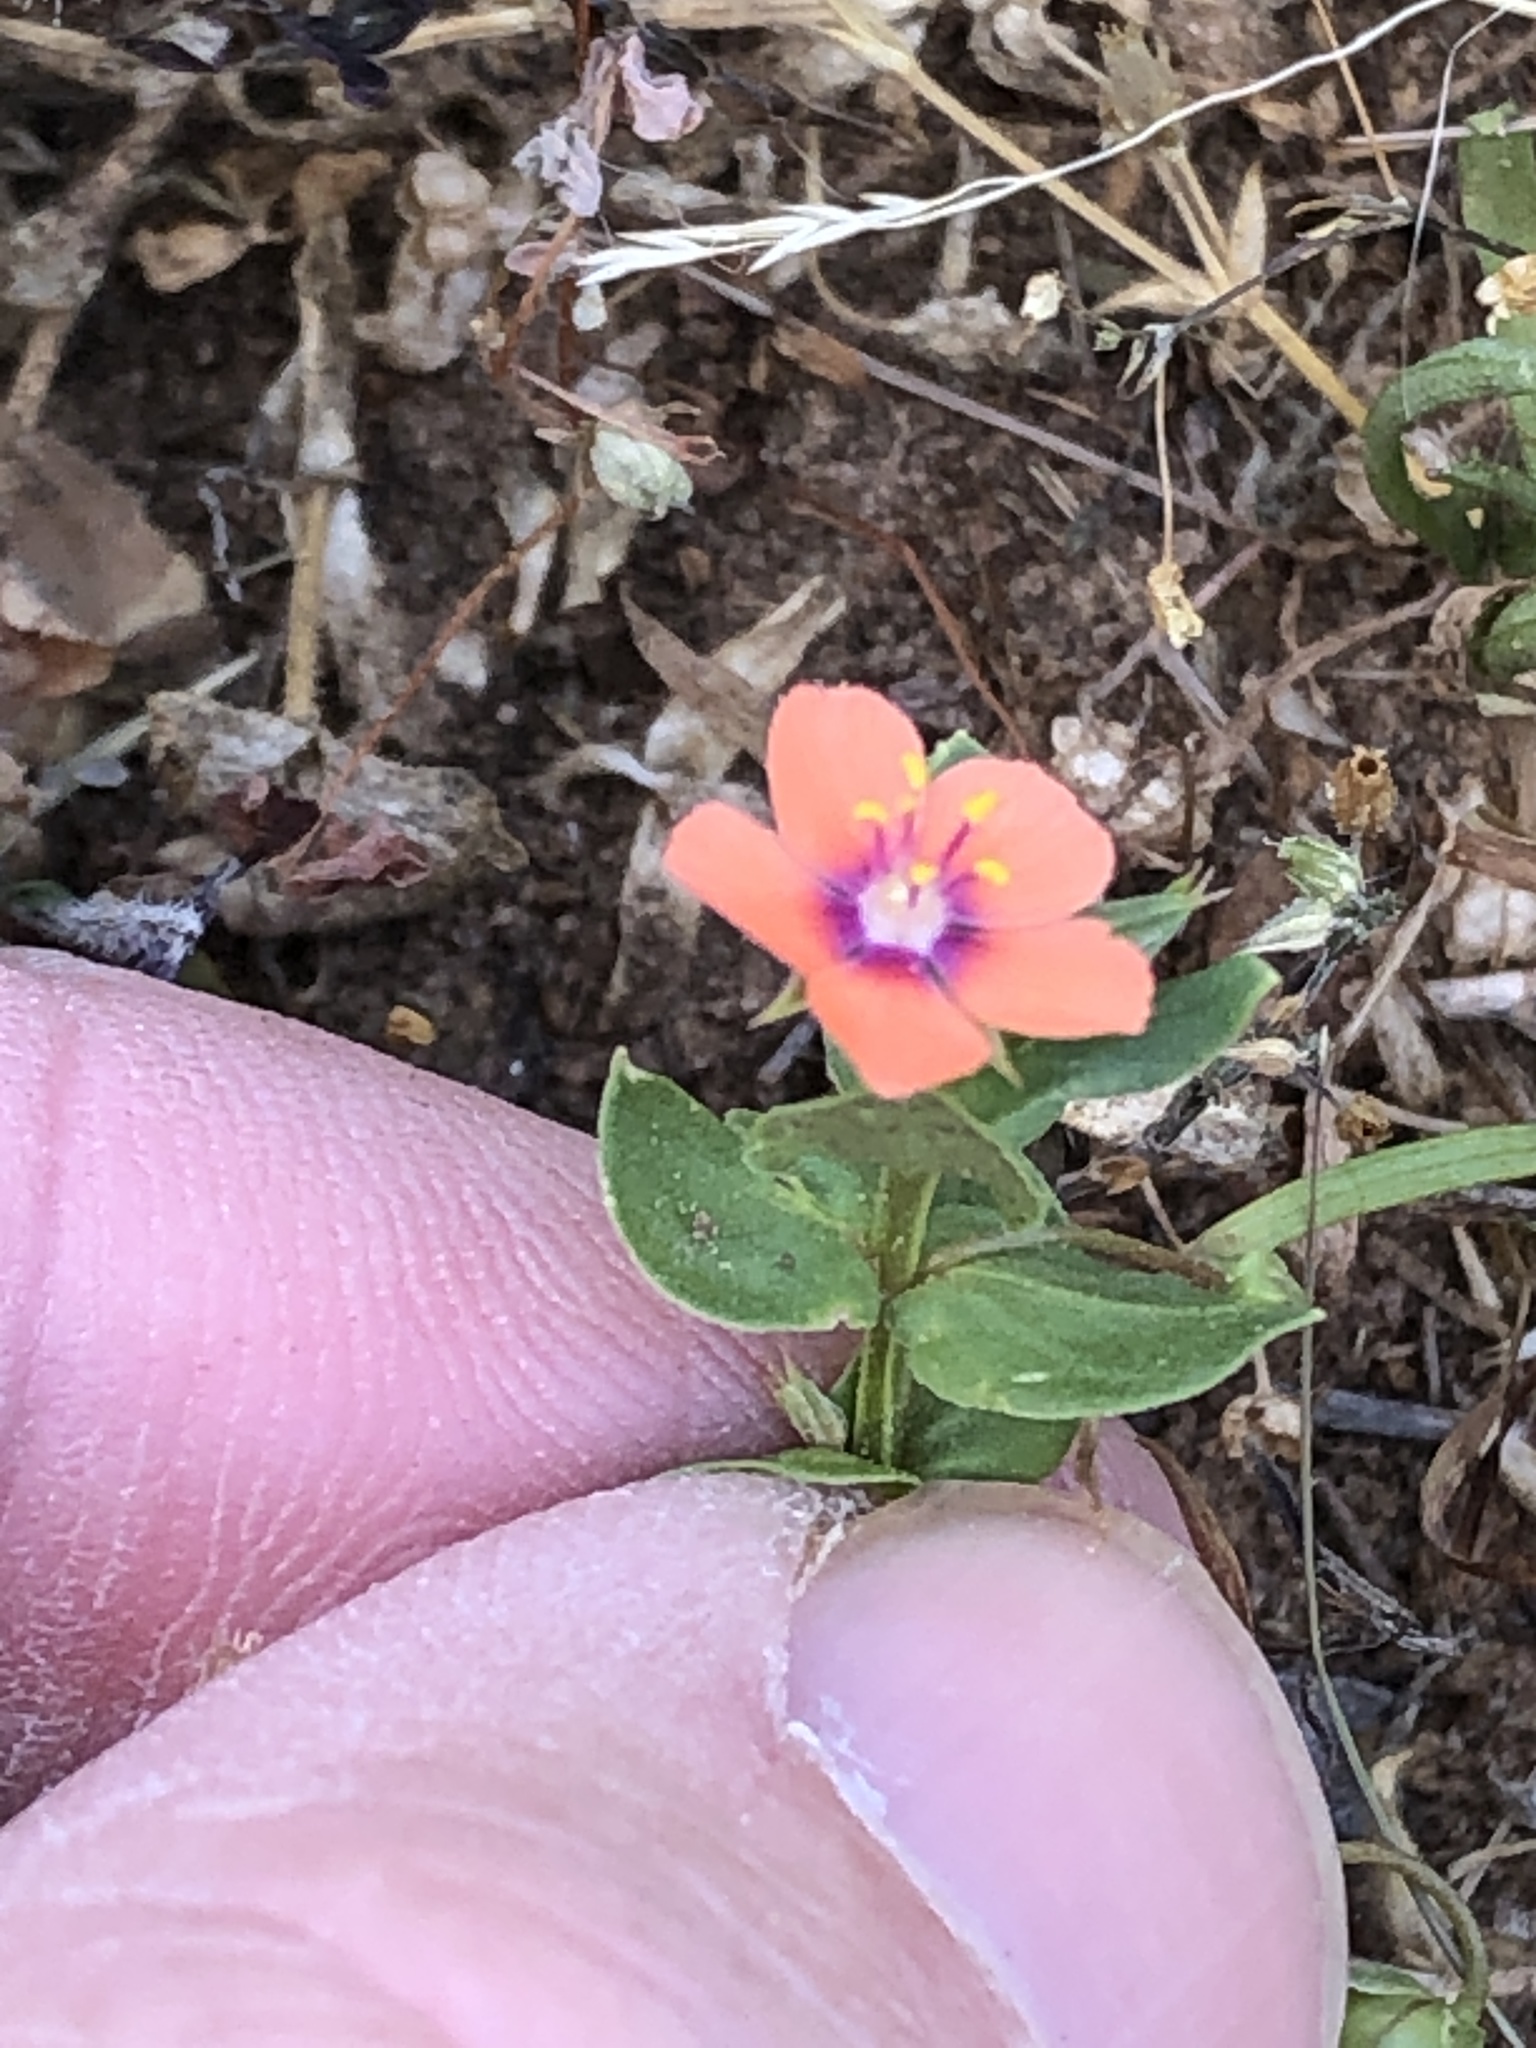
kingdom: Plantae
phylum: Tracheophyta
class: Magnoliopsida
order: Ericales
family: Primulaceae
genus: Lysimachia
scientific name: Lysimachia arvensis
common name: Scarlet pimpernel
